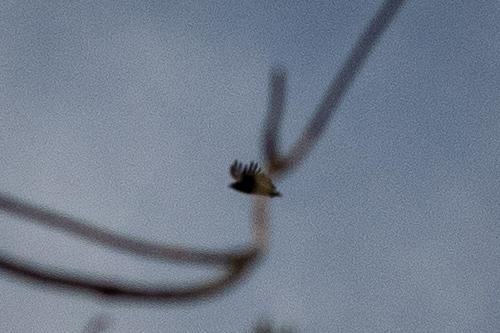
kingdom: Animalia
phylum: Chordata
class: Aves
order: Accipitriformes
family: Accipitridae
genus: Buteo
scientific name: Buteo rufofuscus
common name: Jackal buzzard
